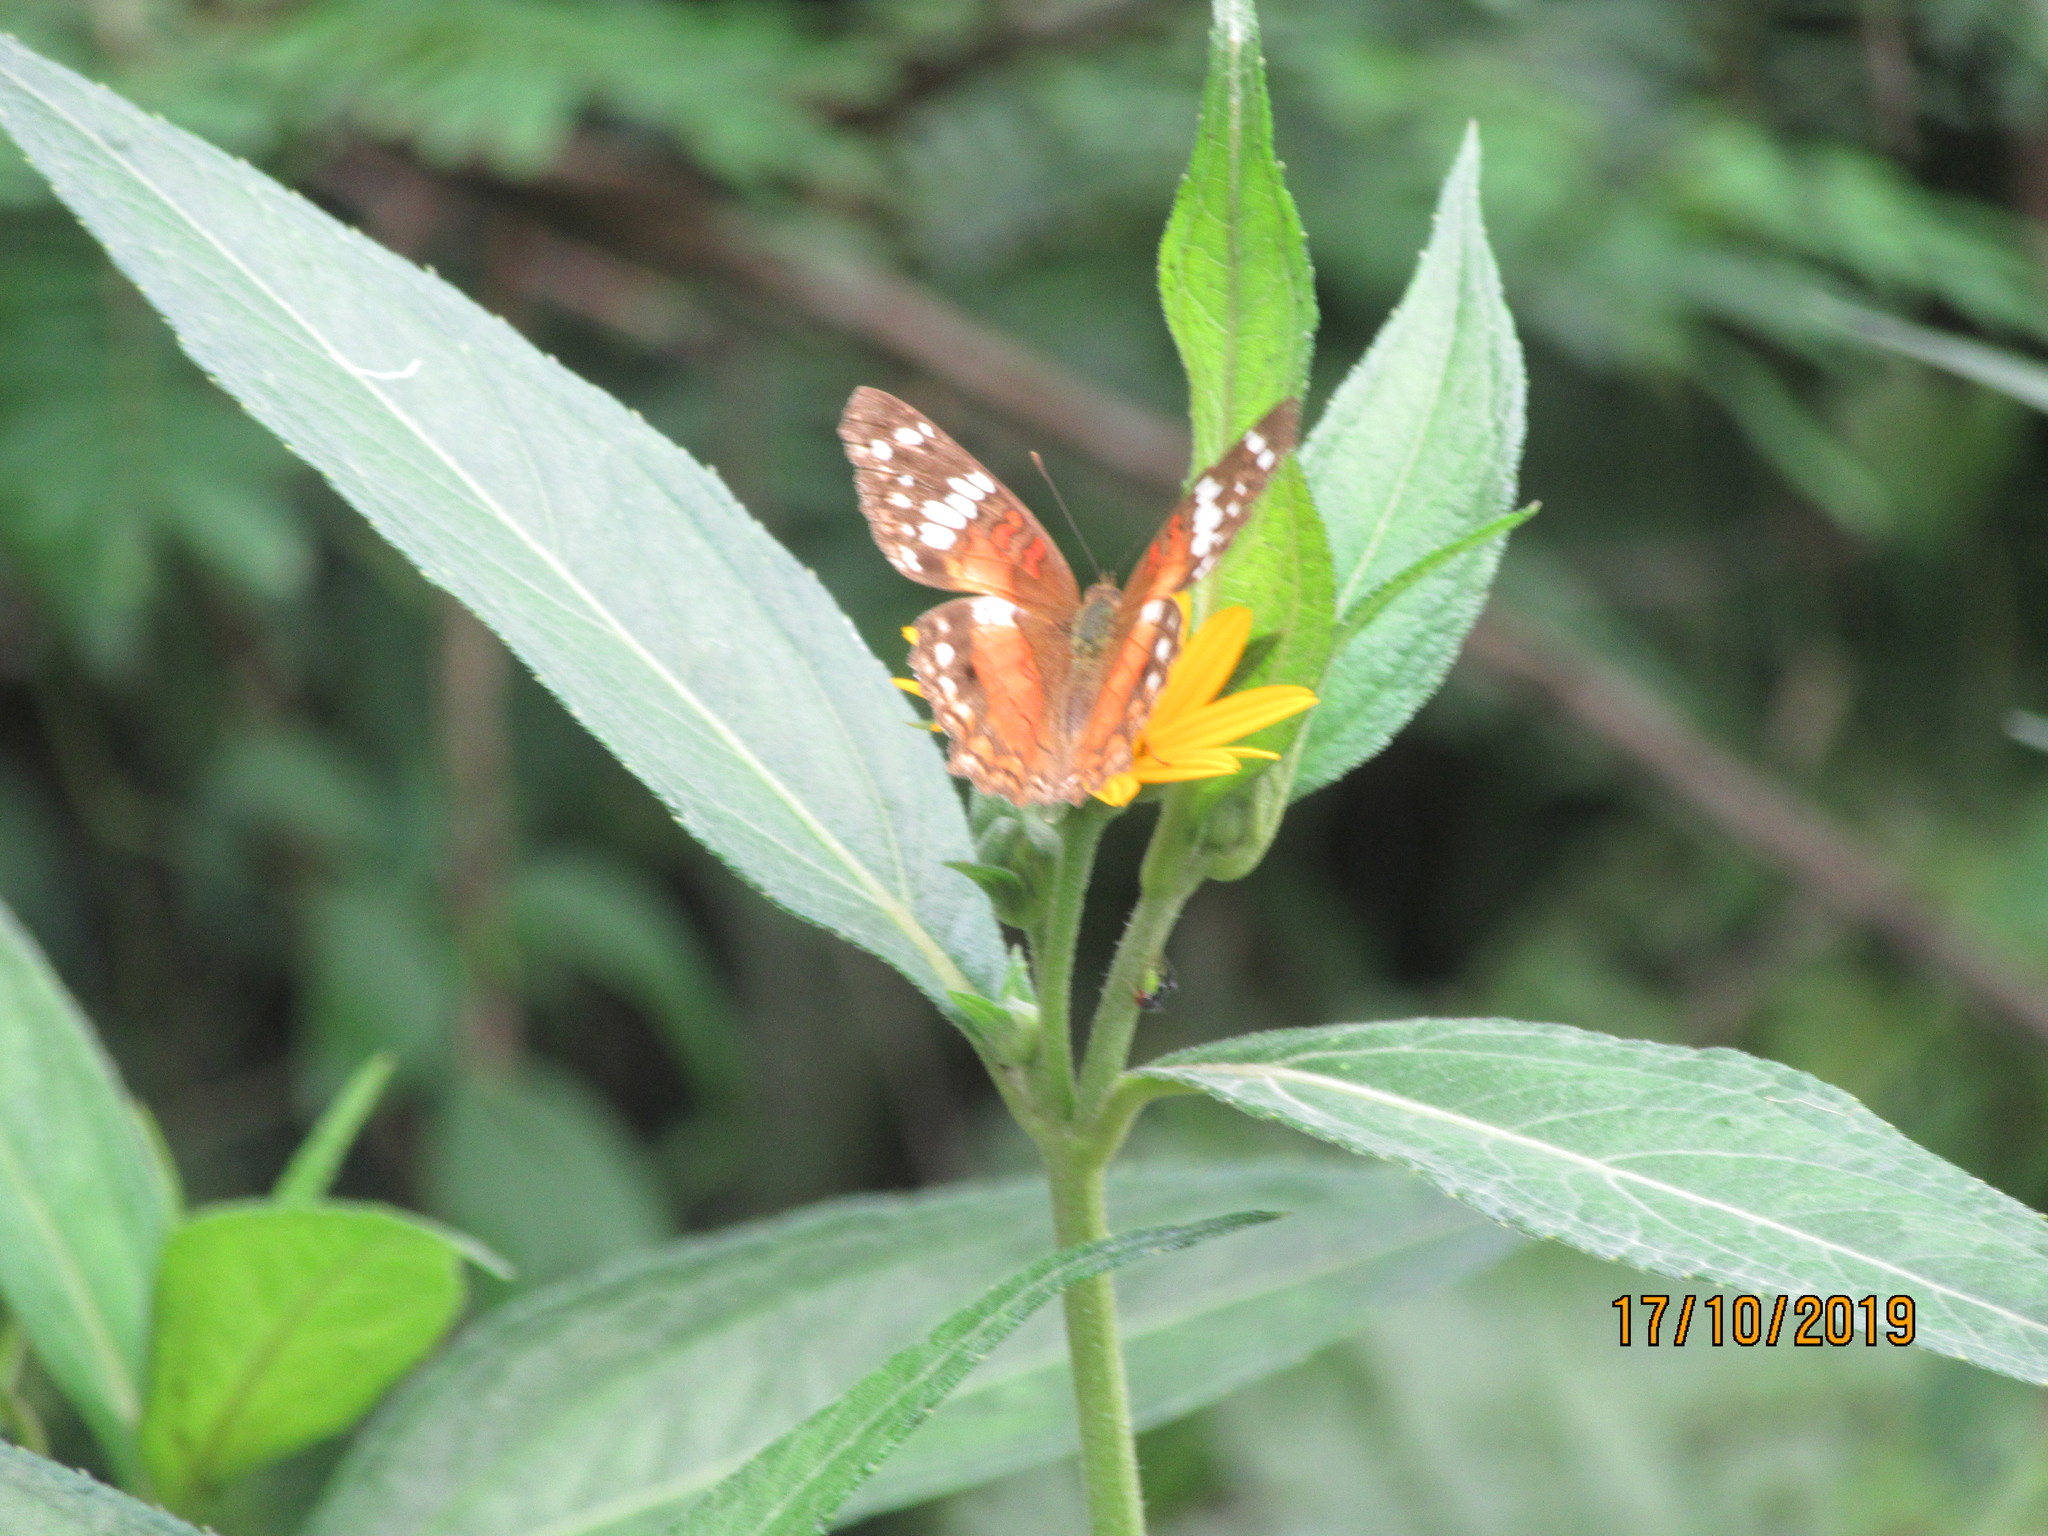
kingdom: Animalia
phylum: Arthropoda
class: Insecta
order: Lepidoptera
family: Nymphalidae
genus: Anartia
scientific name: Anartia amathea
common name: Red peacock
